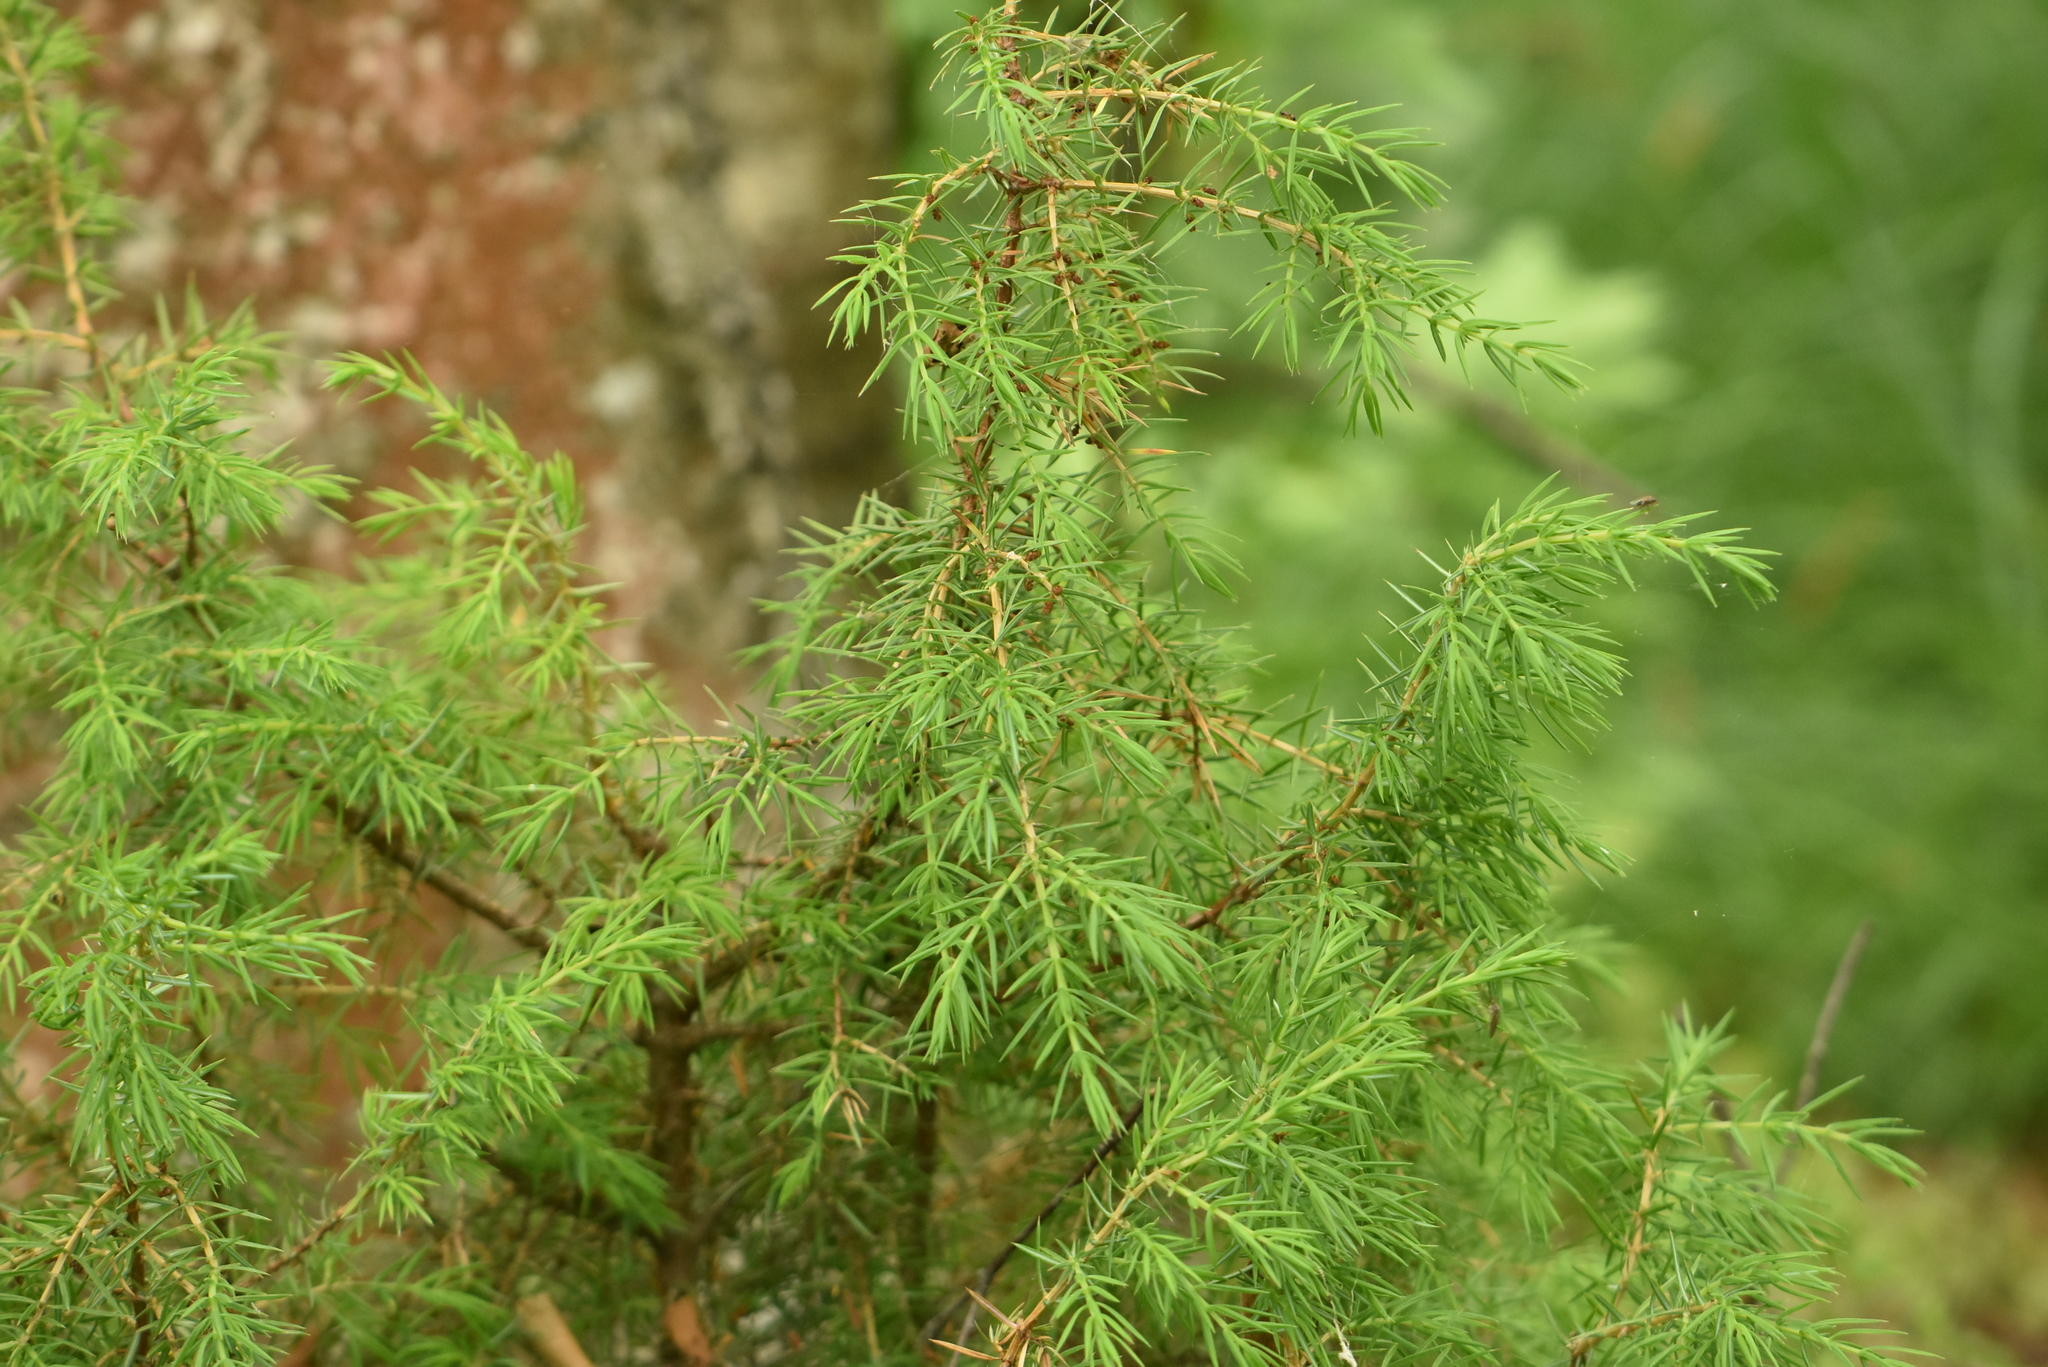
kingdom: Plantae
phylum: Tracheophyta
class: Pinopsida
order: Pinales
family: Cupressaceae
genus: Juniperus
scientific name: Juniperus communis
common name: Common juniper
